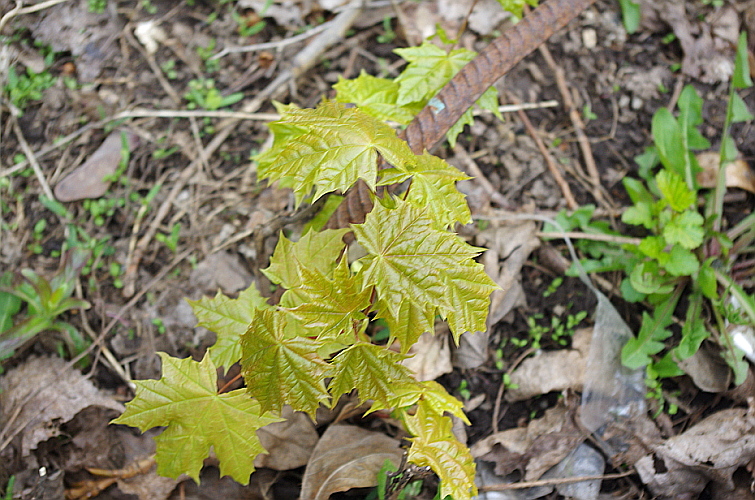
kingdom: Plantae
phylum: Tracheophyta
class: Magnoliopsida
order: Sapindales
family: Sapindaceae
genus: Acer
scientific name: Acer platanoides
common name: Norway maple
